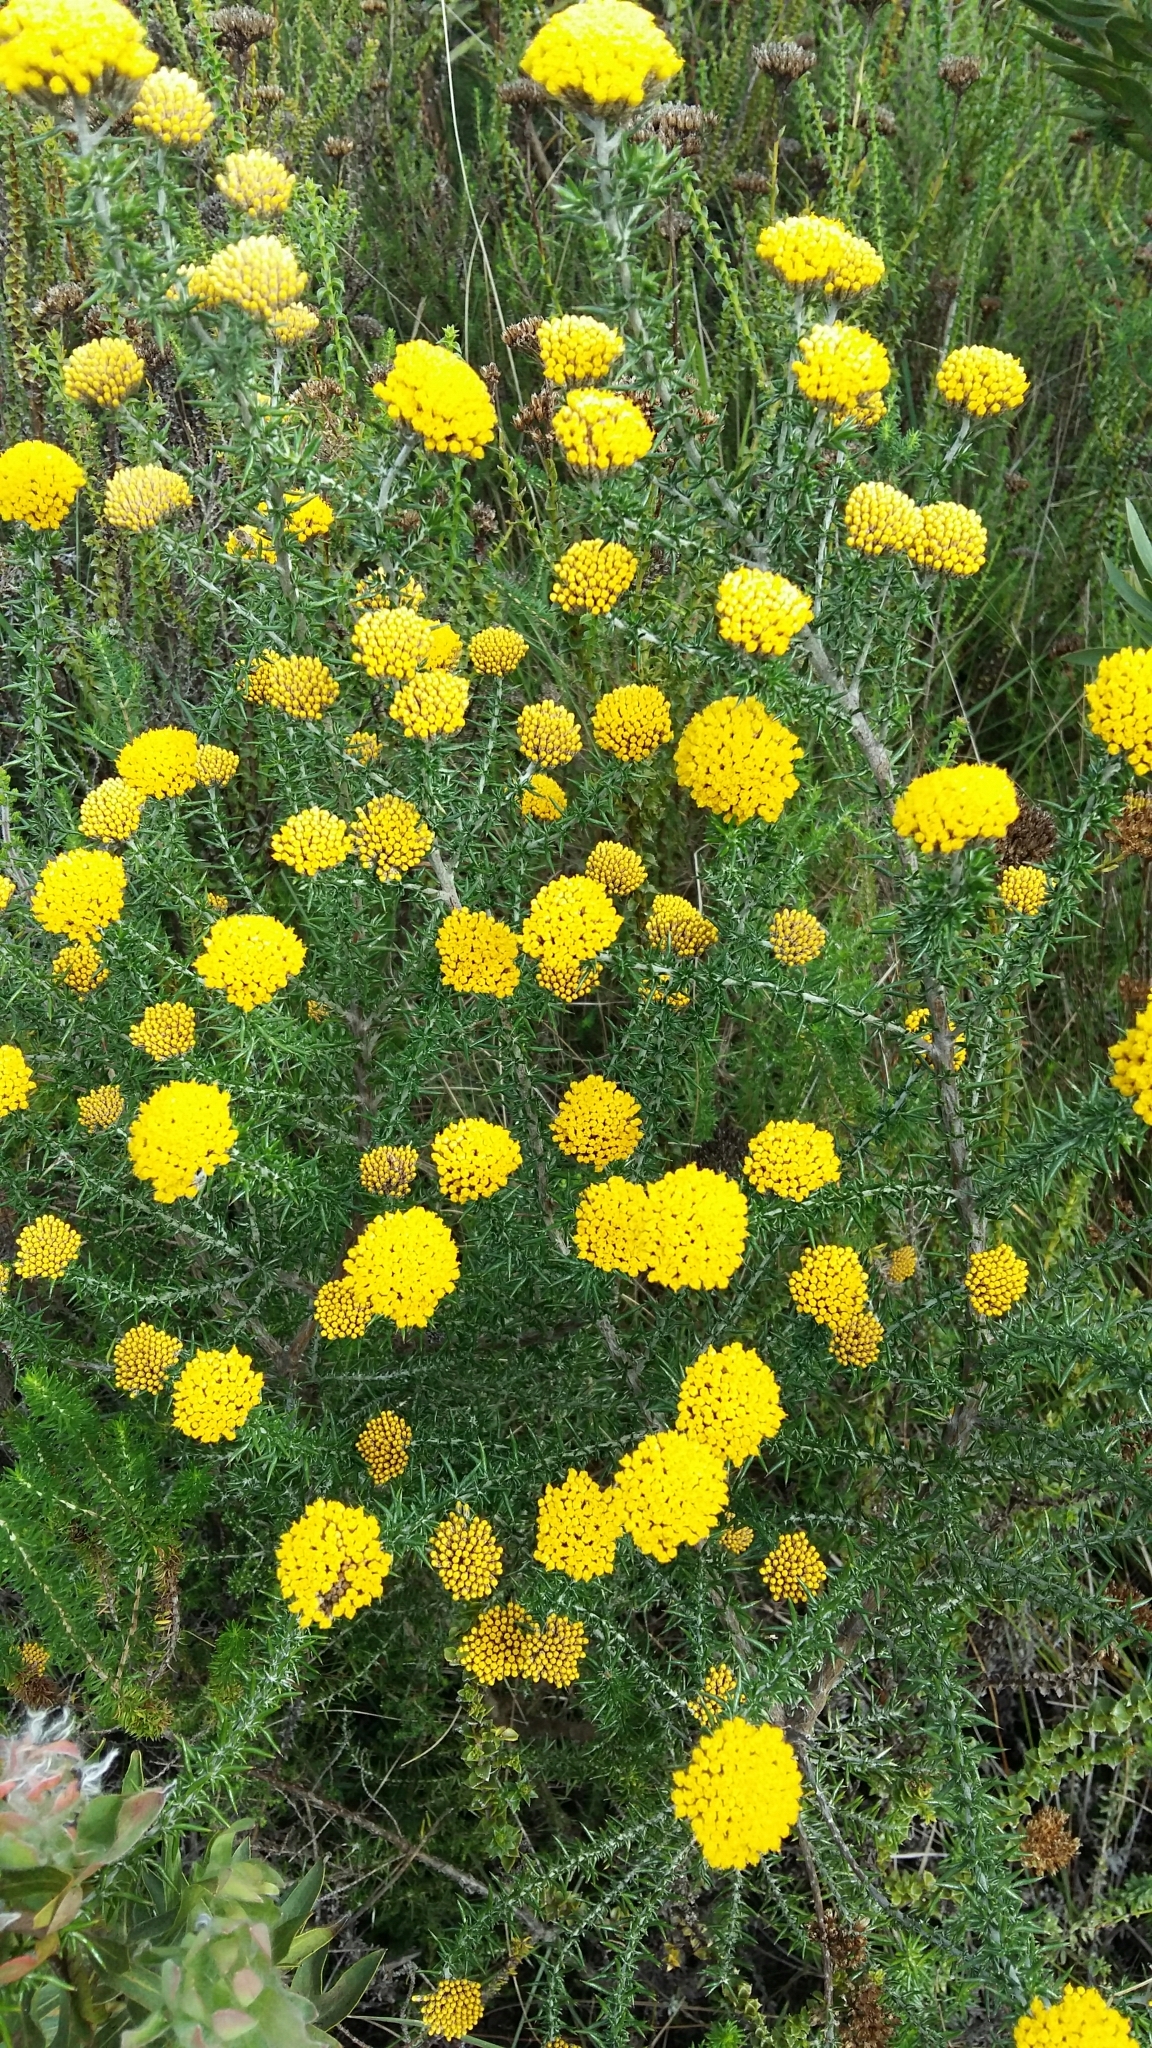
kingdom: Plantae
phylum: Tracheophyta
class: Magnoliopsida
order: Asterales
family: Asteraceae
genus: Metalasia
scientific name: Metalasia aurea
